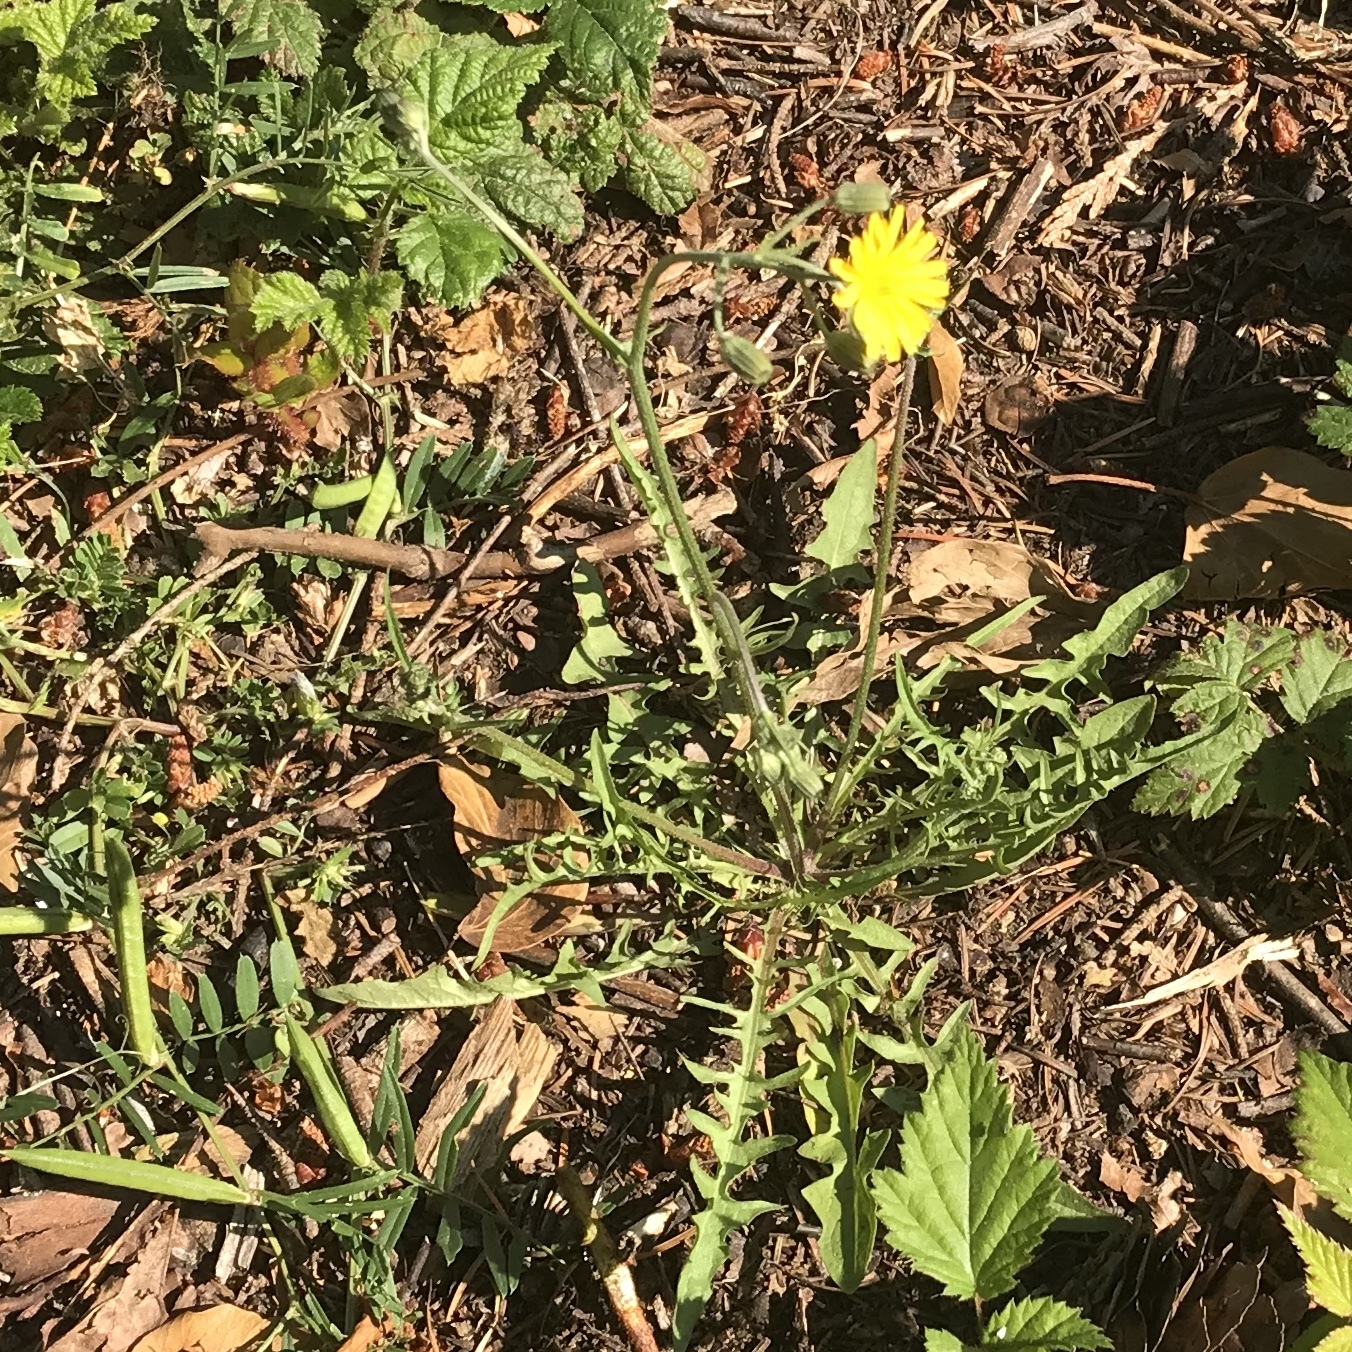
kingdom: Plantae
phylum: Tracheophyta
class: Magnoliopsida
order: Asterales
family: Asteraceae
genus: Hypochaeris
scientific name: Hypochaeris radicata
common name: Flatweed
